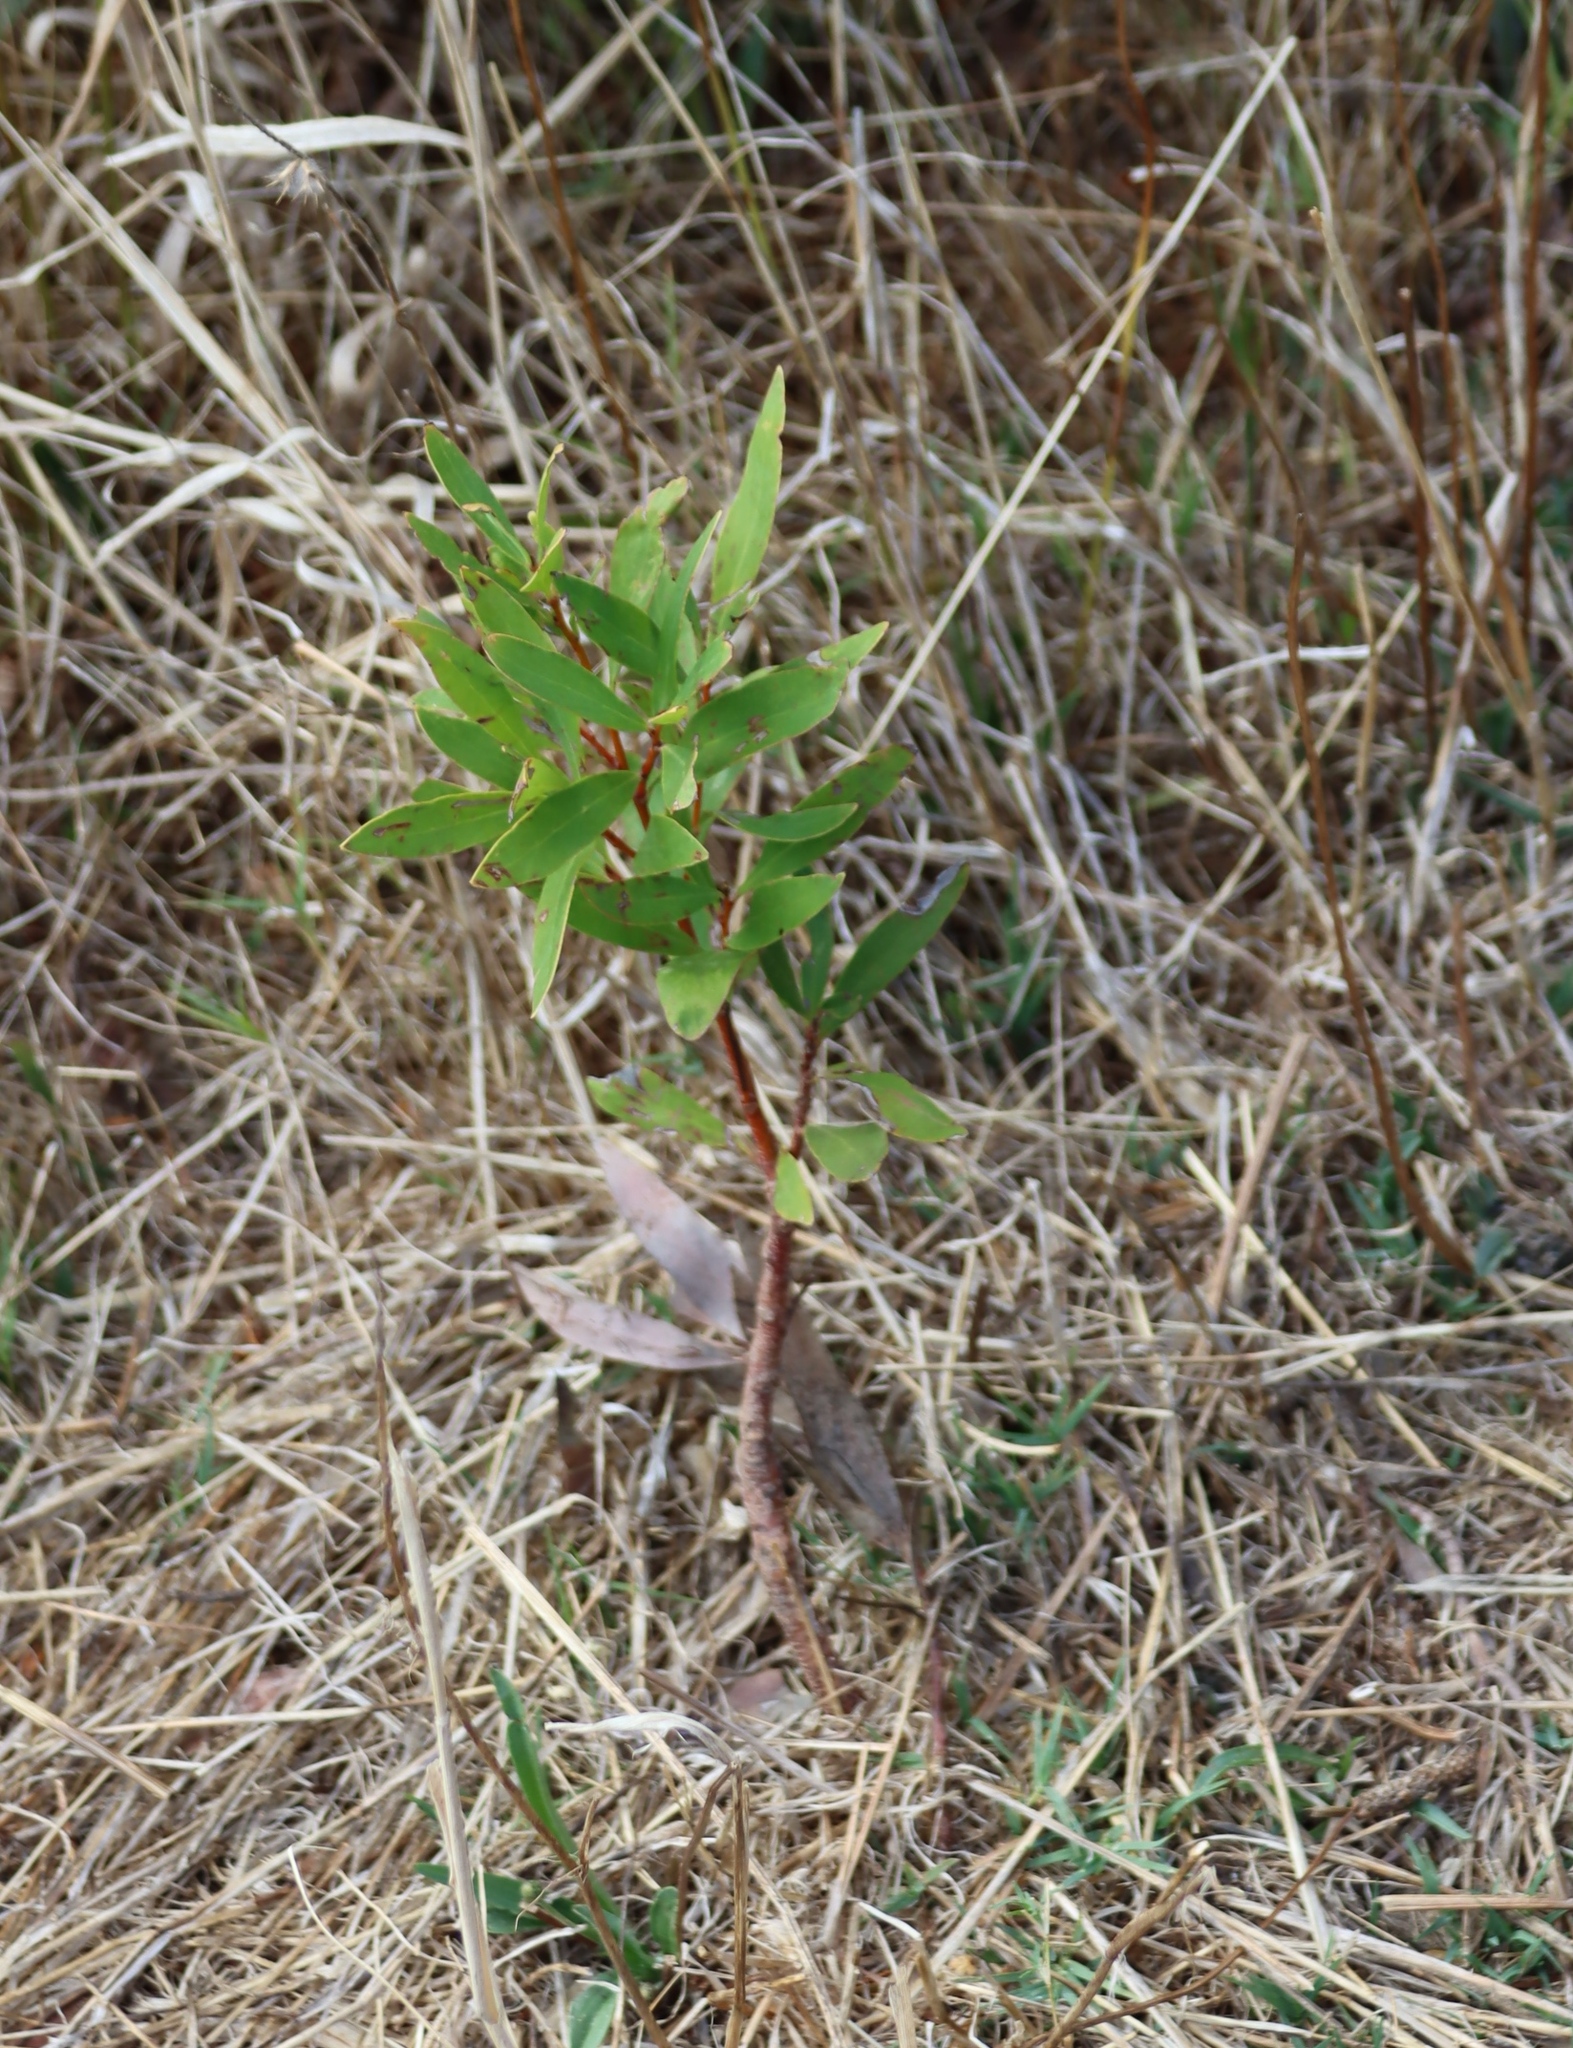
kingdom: Plantae
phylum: Tracheophyta
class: Magnoliopsida
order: Proteales
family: Proteaceae
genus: Hakea
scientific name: Hakea salicifolia
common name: Willow hakea
